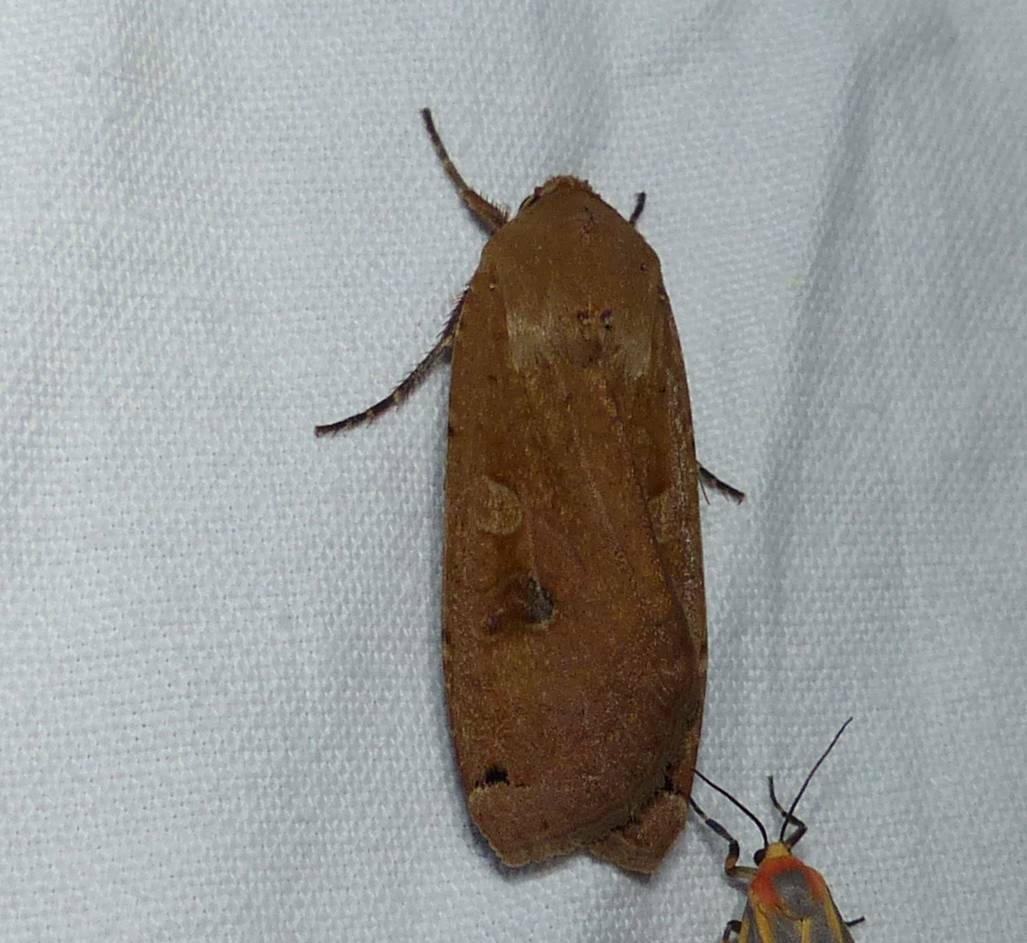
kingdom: Animalia
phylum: Arthropoda
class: Insecta
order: Lepidoptera
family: Noctuidae
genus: Noctua
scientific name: Noctua pronuba
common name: Large yellow underwing
